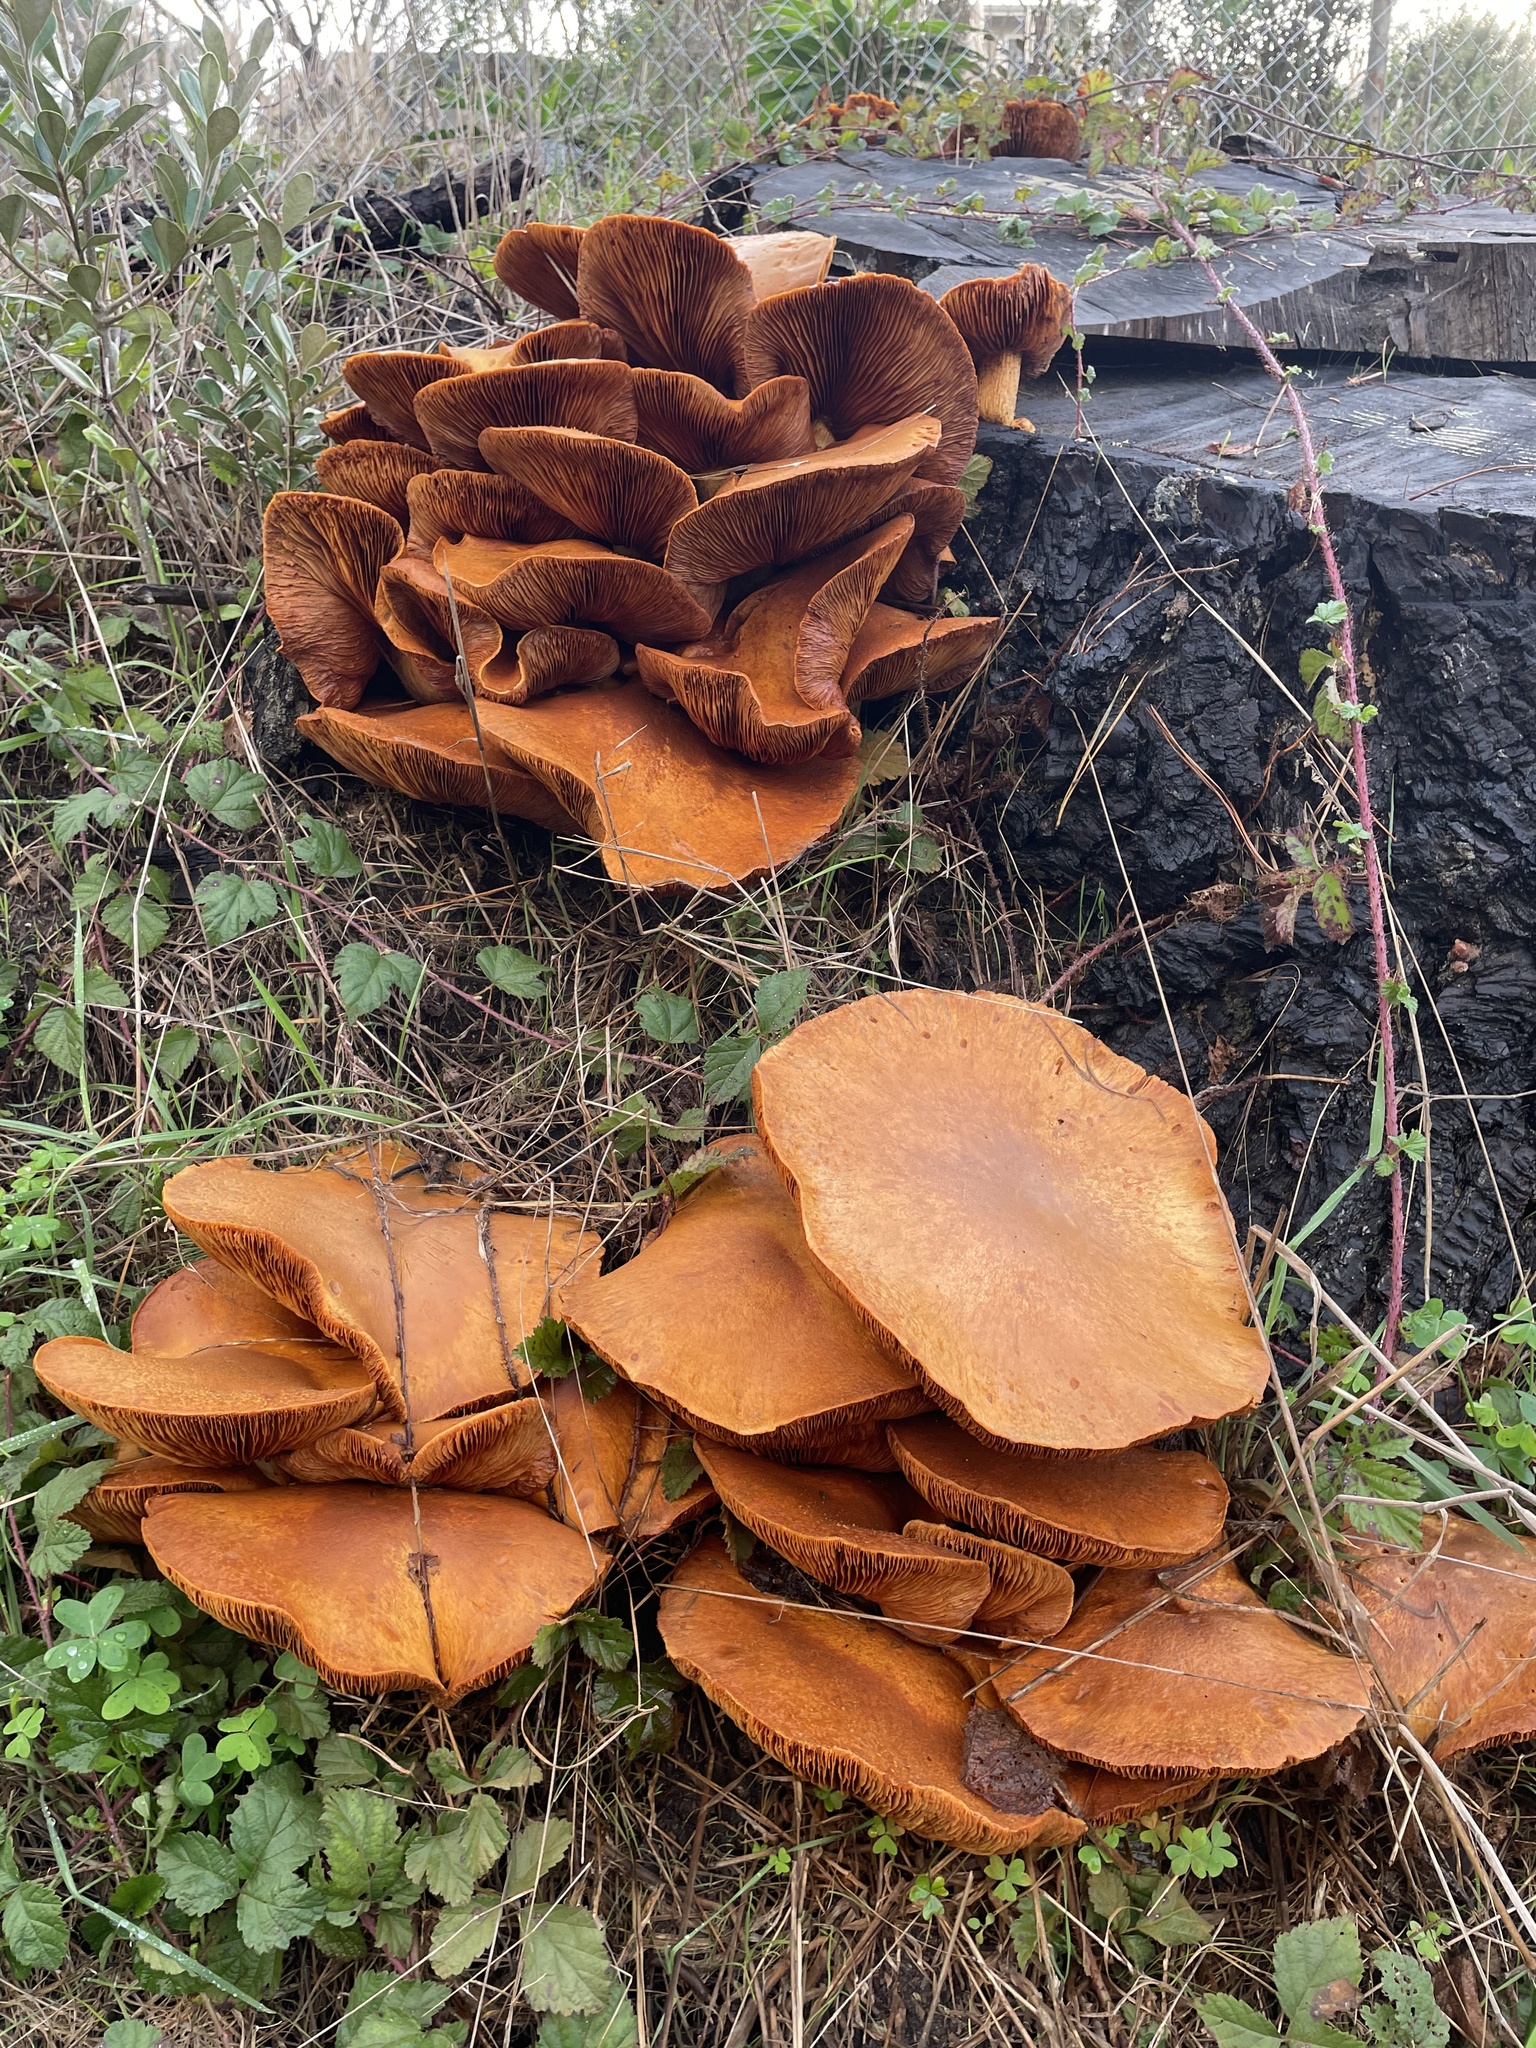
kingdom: Fungi
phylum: Basidiomycota
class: Agaricomycetes
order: Agaricales
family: Hymenogastraceae
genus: Gymnopilus
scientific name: Gymnopilus ventricosus
